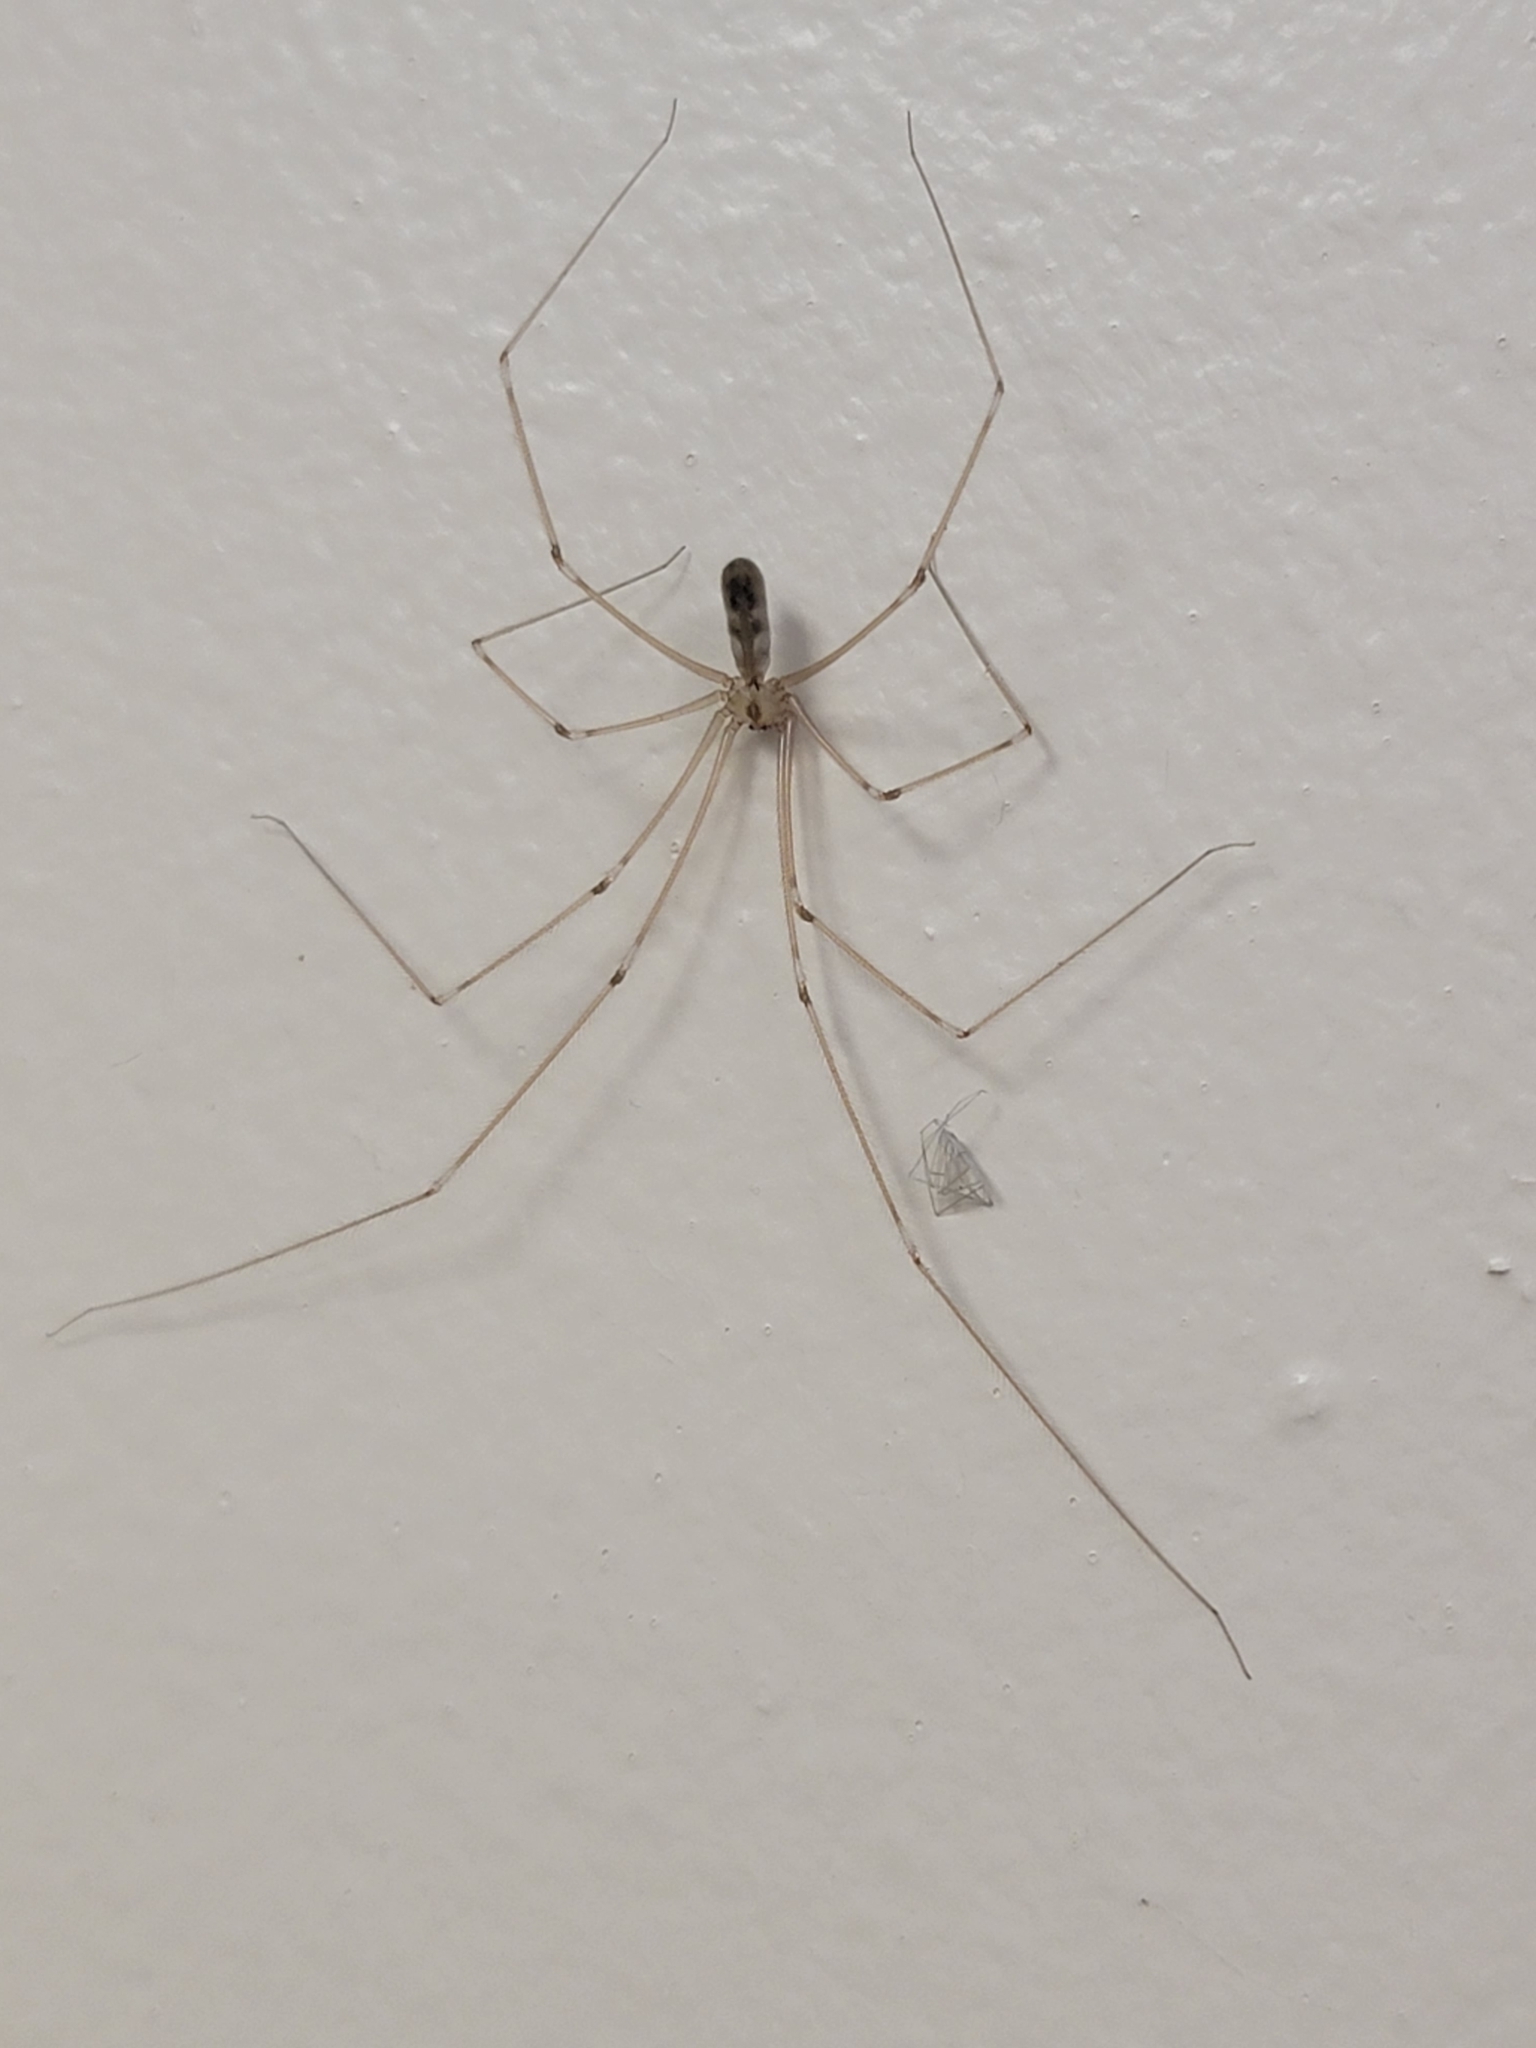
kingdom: Animalia
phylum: Arthropoda
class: Arachnida
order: Araneae
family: Pholcidae
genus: Pholcus
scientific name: Pholcus phalangioides
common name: Longbodied cellar spider
